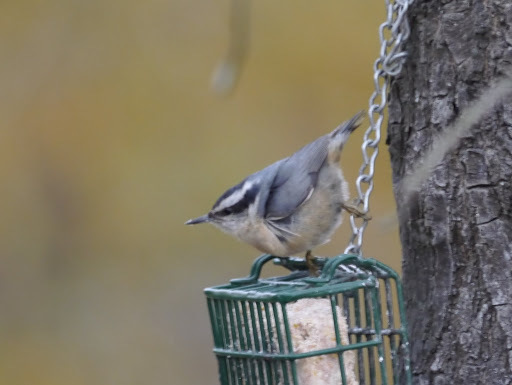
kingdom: Animalia
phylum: Chordata
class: Aves
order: Passeriformes
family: Sittidae
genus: Sitta
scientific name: Sitta canadensis
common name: Red-breasted nuthatch
